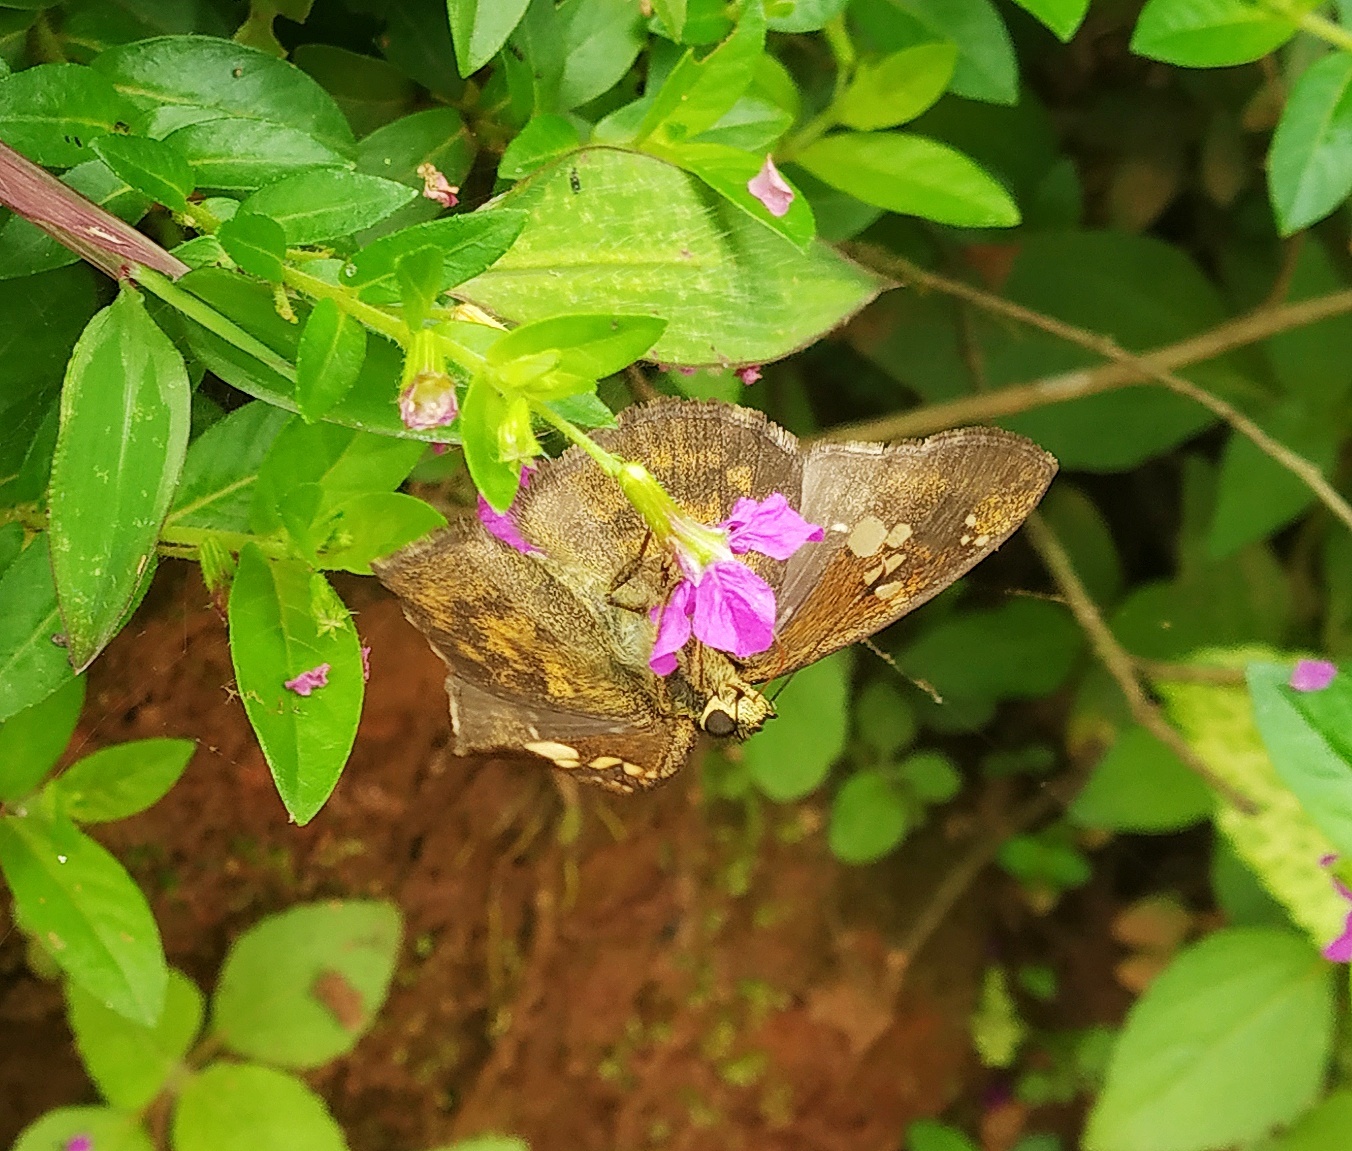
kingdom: Animalia
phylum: Arthropoda
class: Insecta
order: Lepidoptera
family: Hesperiidae
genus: Pseudocoladenia
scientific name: Pseudocoladenia dan
